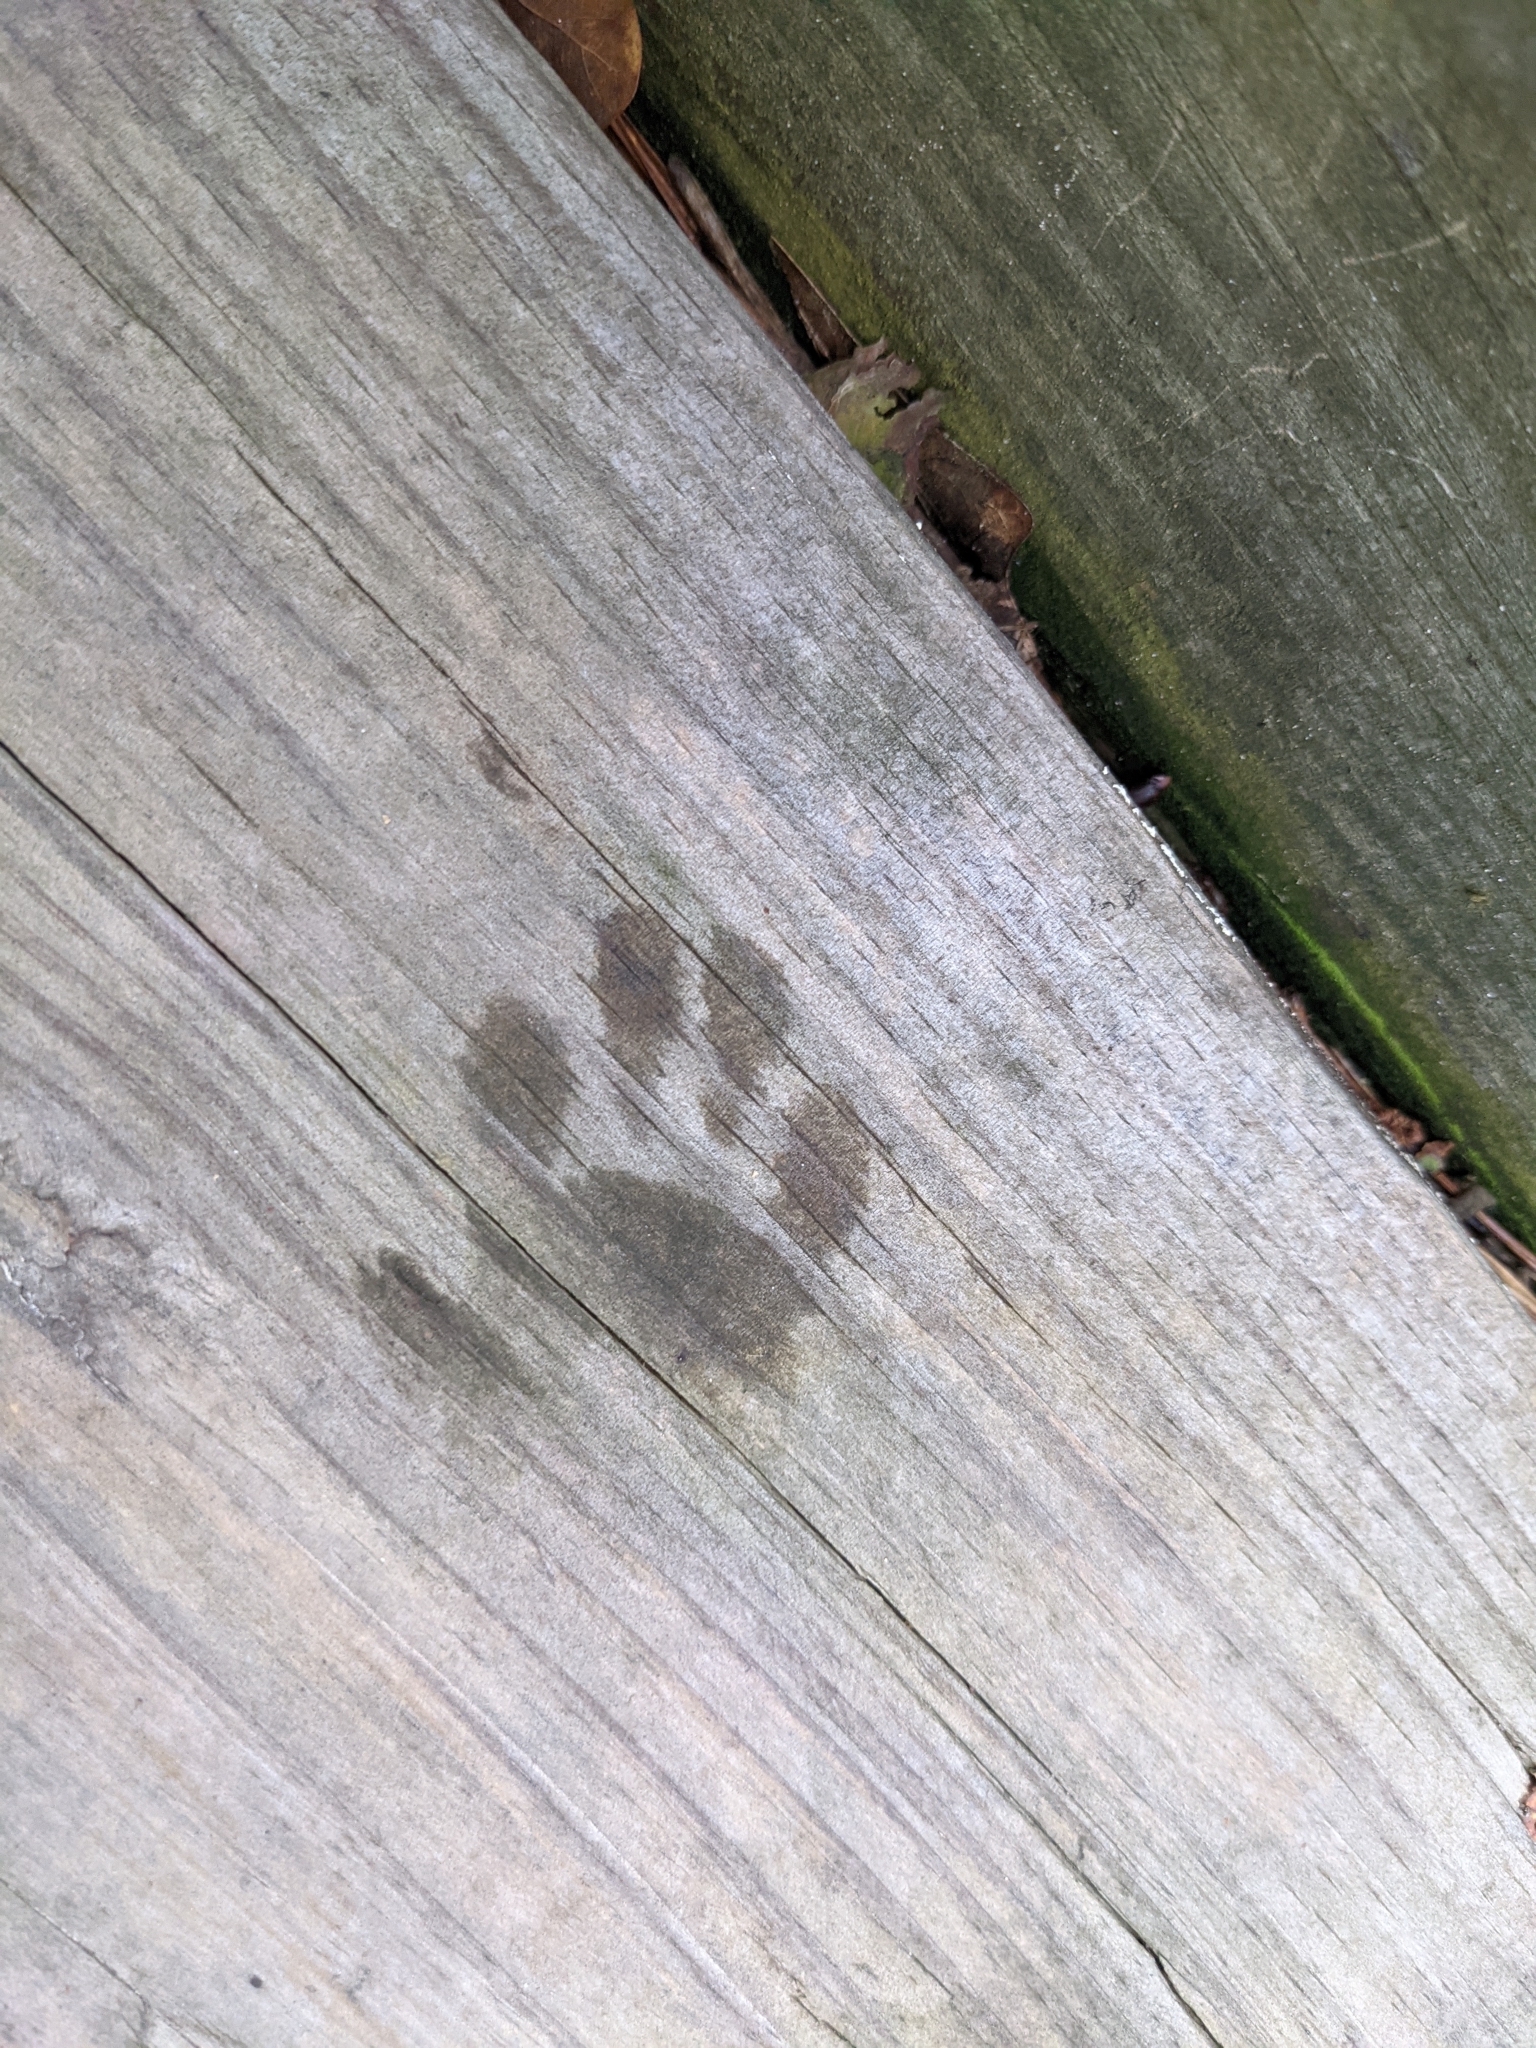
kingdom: Animalia
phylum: Chordata
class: Mammalia
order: Carnivora
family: Procyonidae
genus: Procyon
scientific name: Procyon lotor
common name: Raccoon
